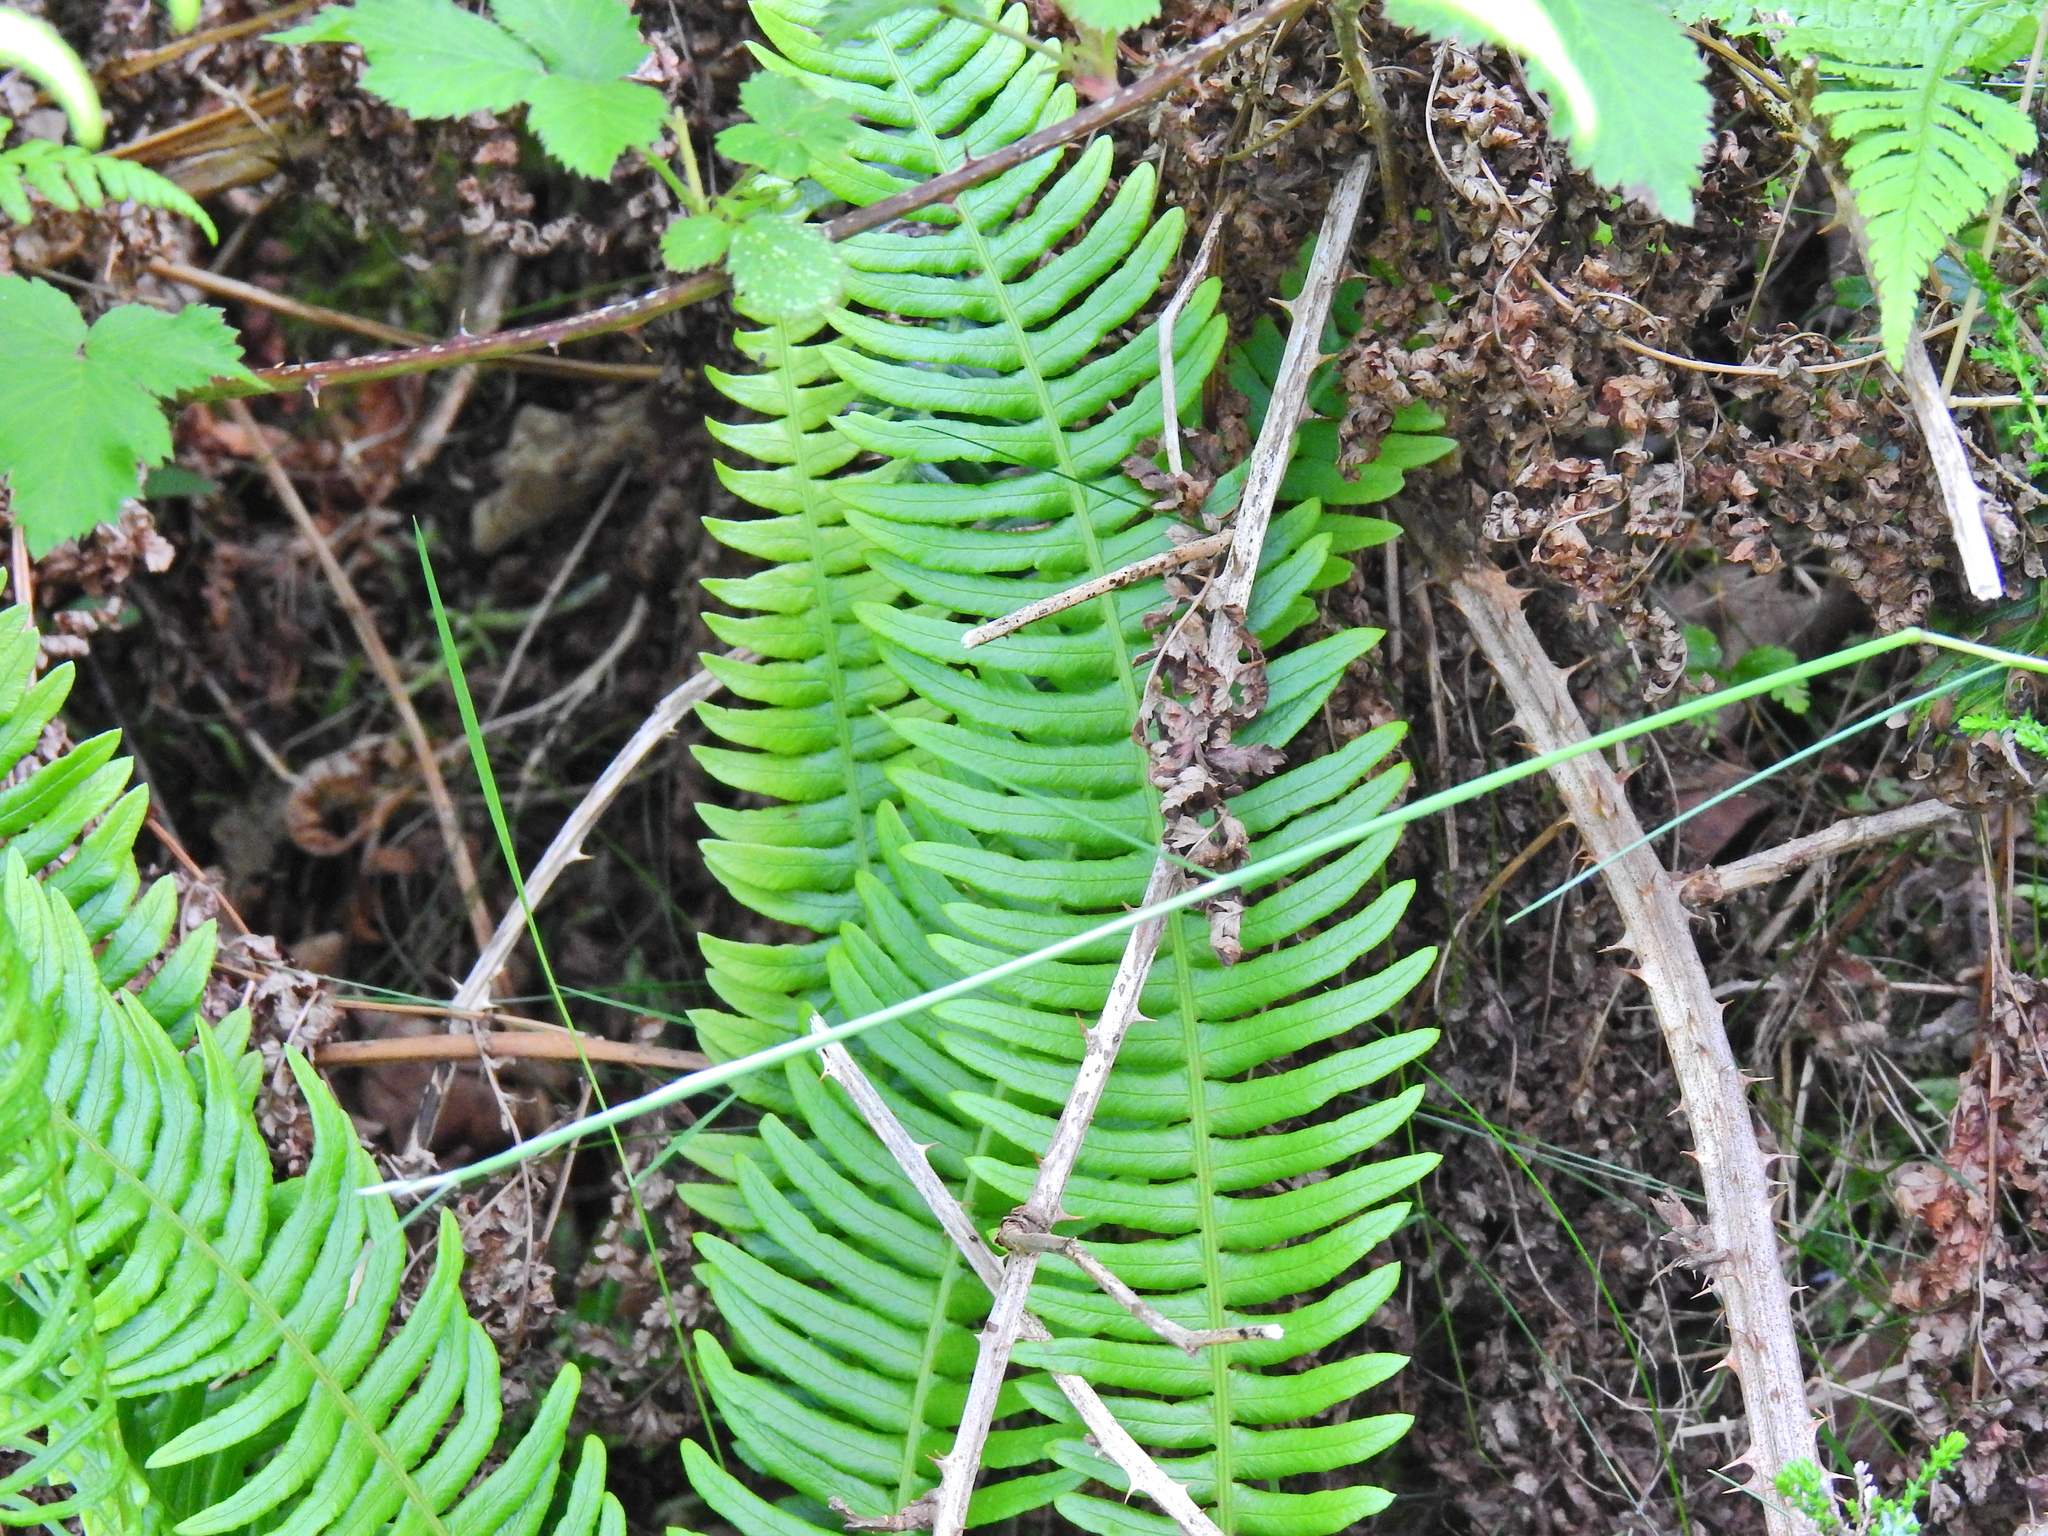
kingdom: Plantae
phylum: Tracheophyta
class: Polypodiopsida
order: Polypodiales
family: Blechnaceae
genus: Struthiopteris
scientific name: Struthiopteris spicant
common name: Deer fern
